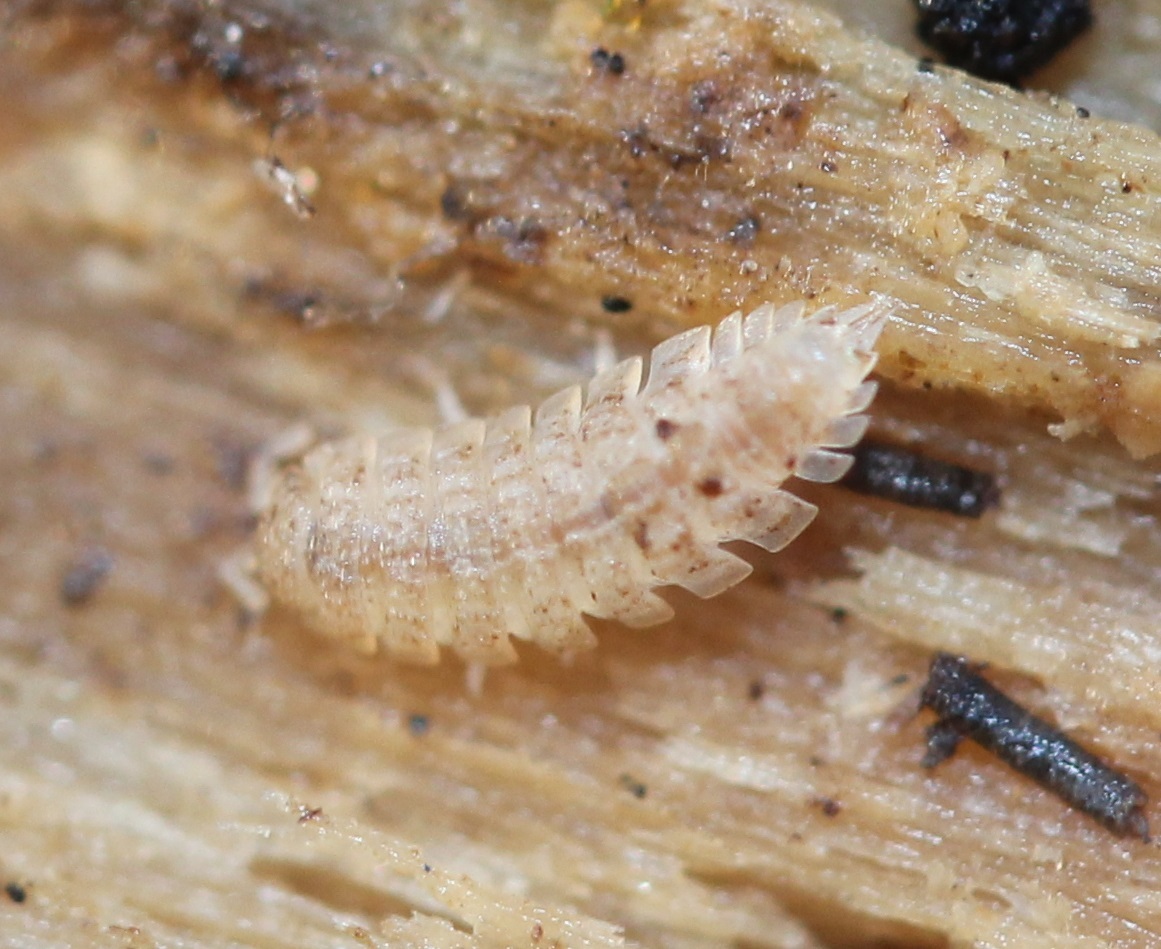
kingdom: Animalia
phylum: Arthropoda
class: Malacostraca
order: Isopoda
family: Trichoniscidae
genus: Haplophthalmus
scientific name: Haplophthalmus danicus
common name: Pillbug
